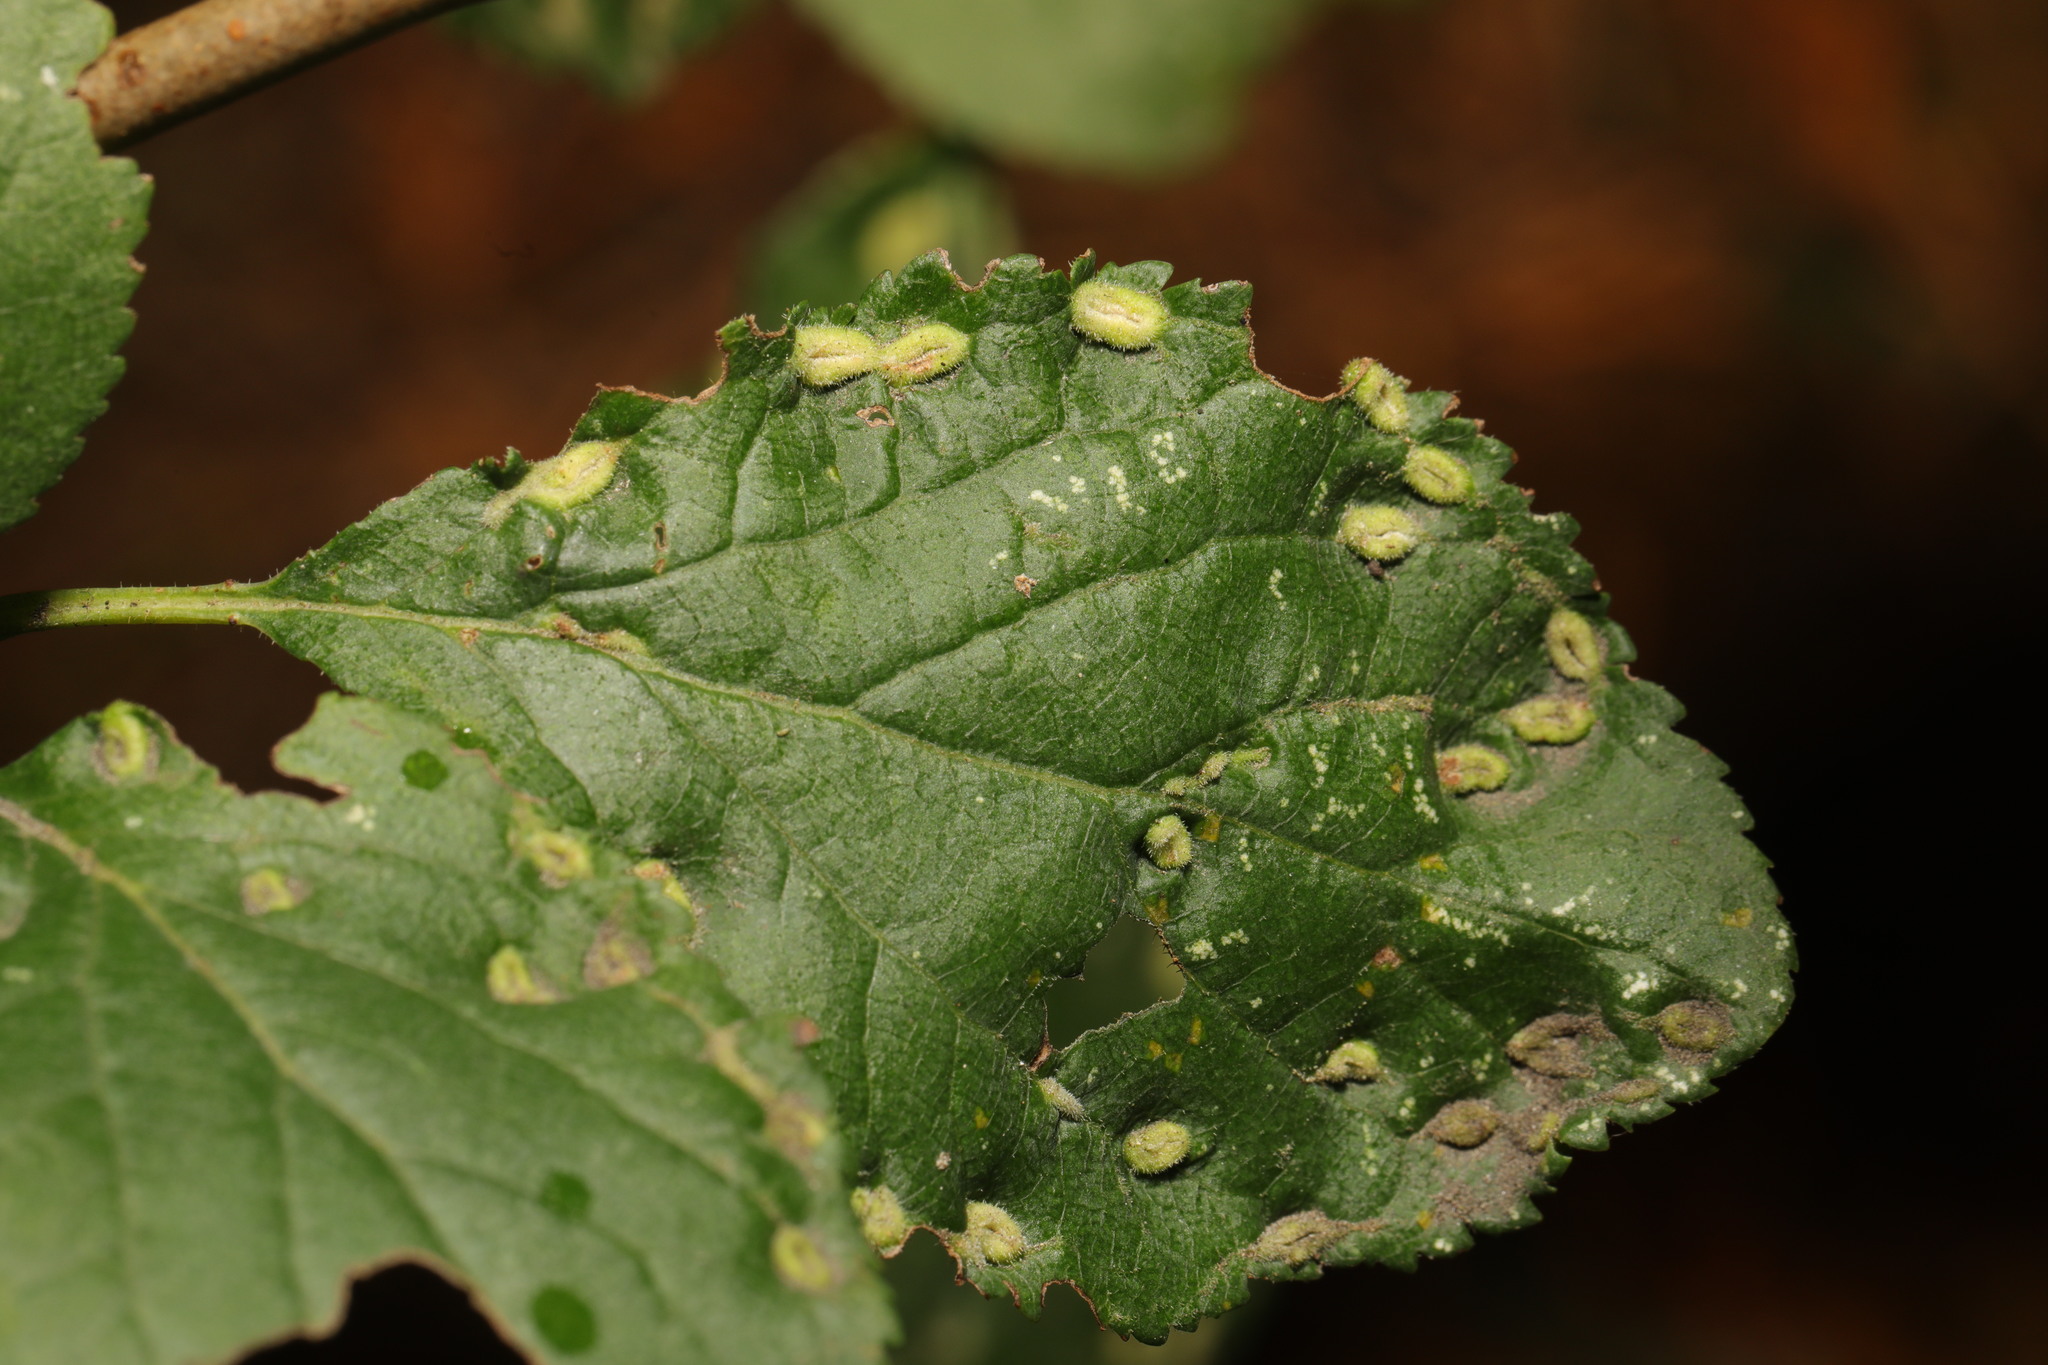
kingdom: Animalia
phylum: Arthropoda
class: Arachnida
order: Trombidiformes
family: Eriophyidae
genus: Eriophyes
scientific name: Eriophyes similis
